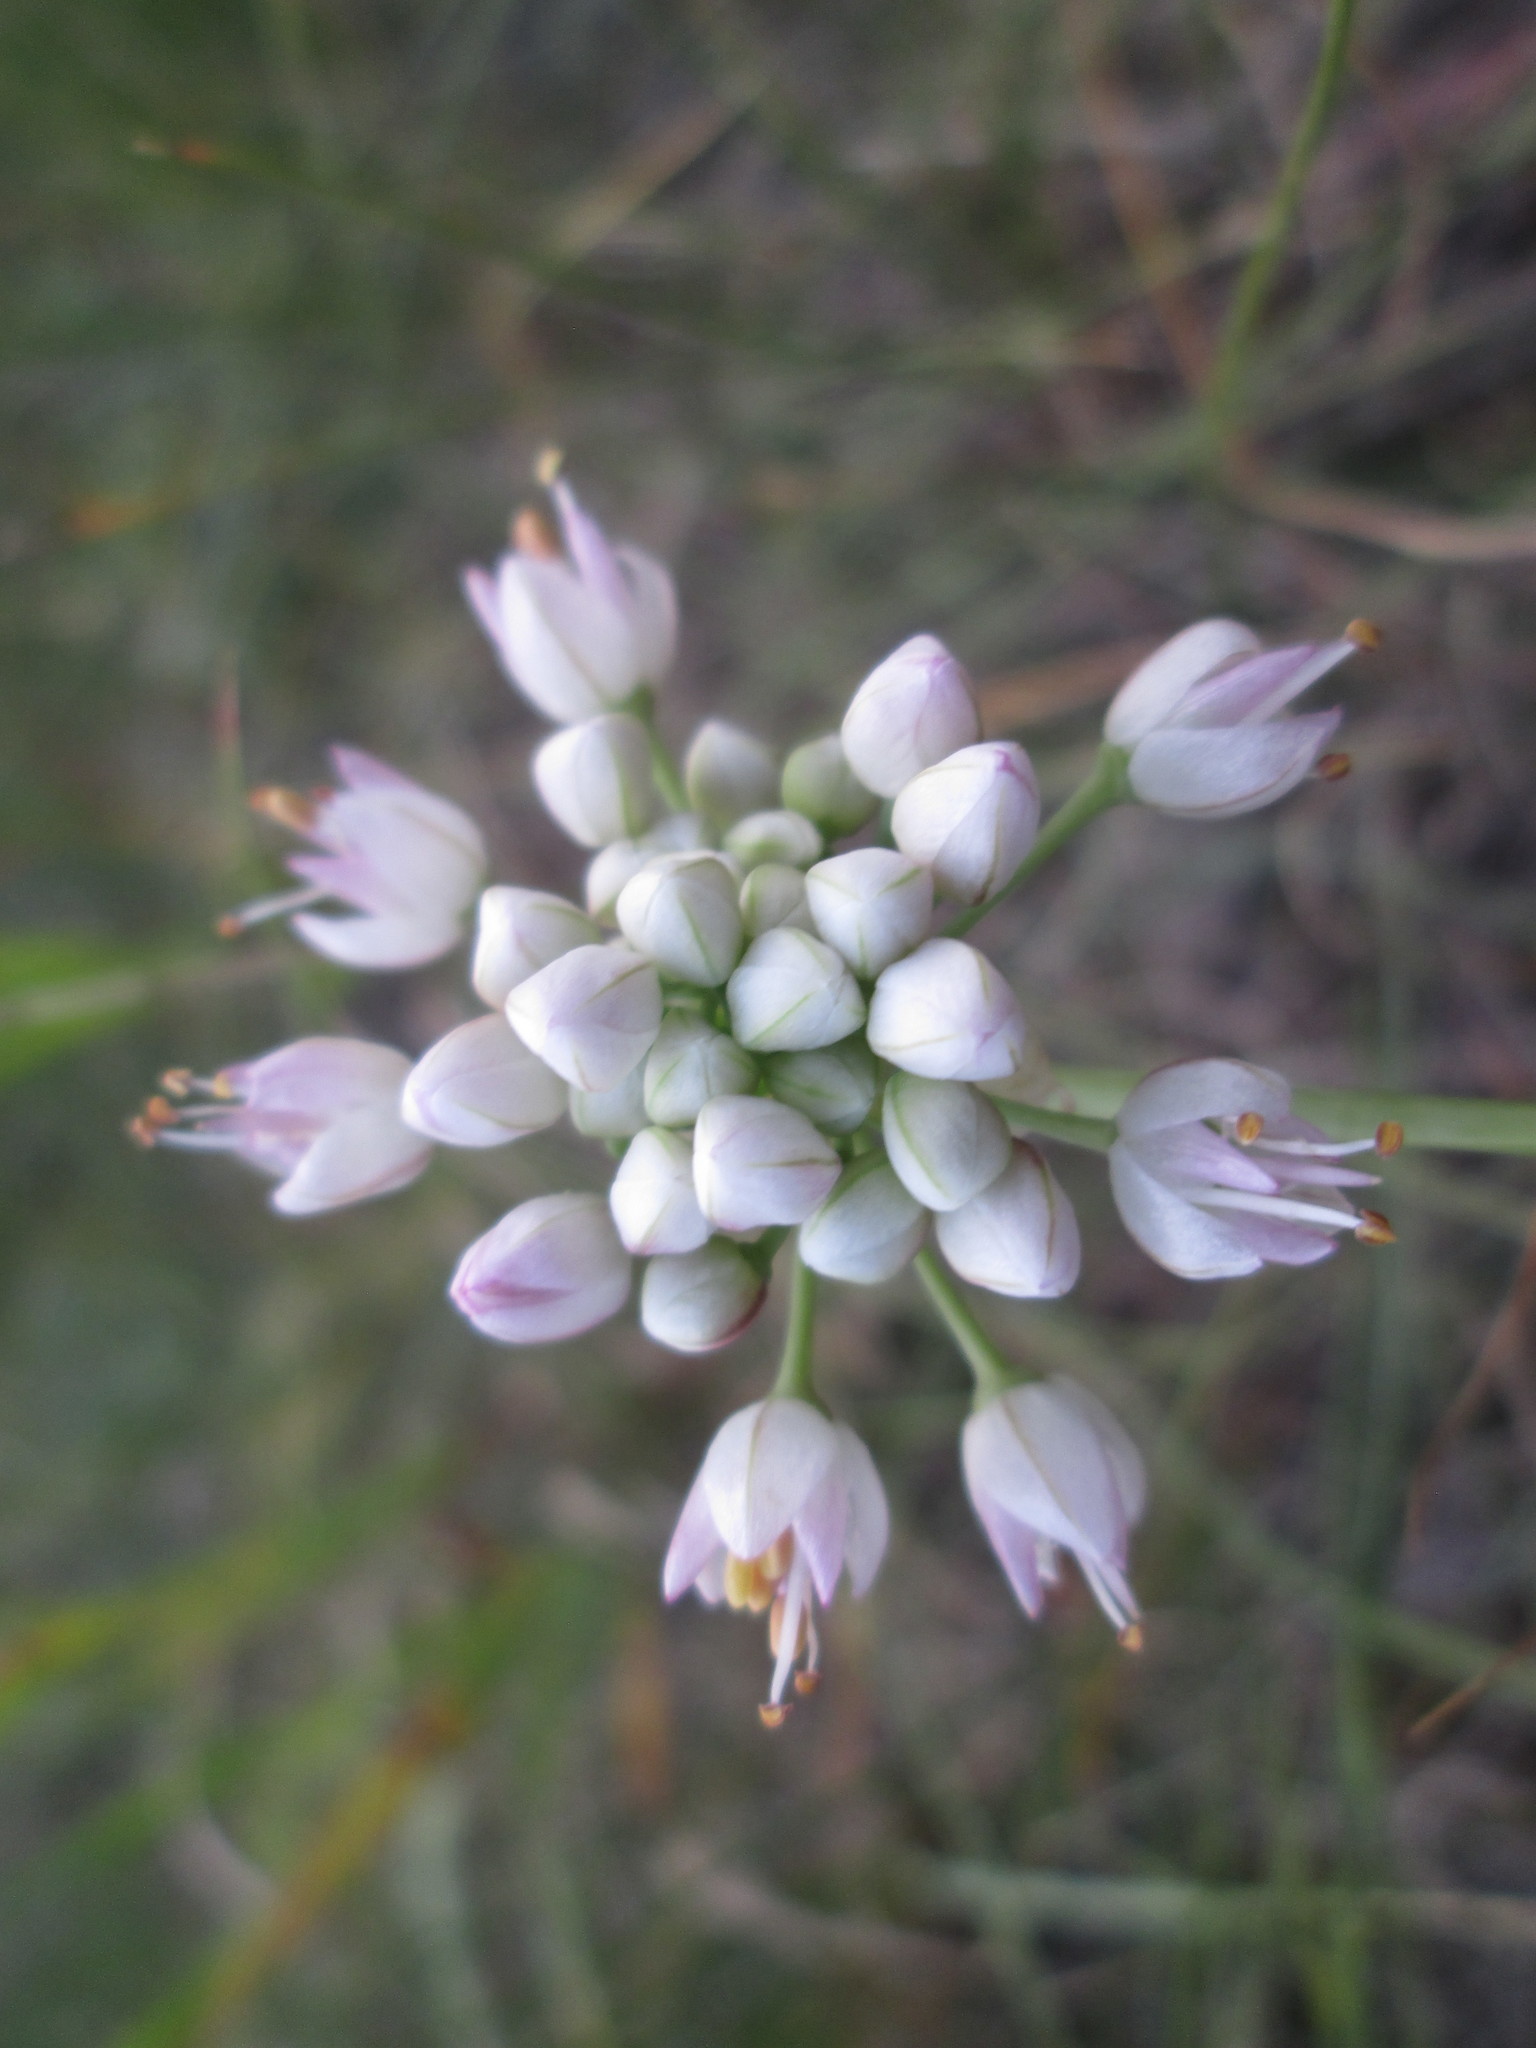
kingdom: Plantae
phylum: Tracheophyta
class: Liliopsida
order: Asparagales
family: Amaryllidaceae
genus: Allium
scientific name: Allium cernuum
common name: Nodding onion
